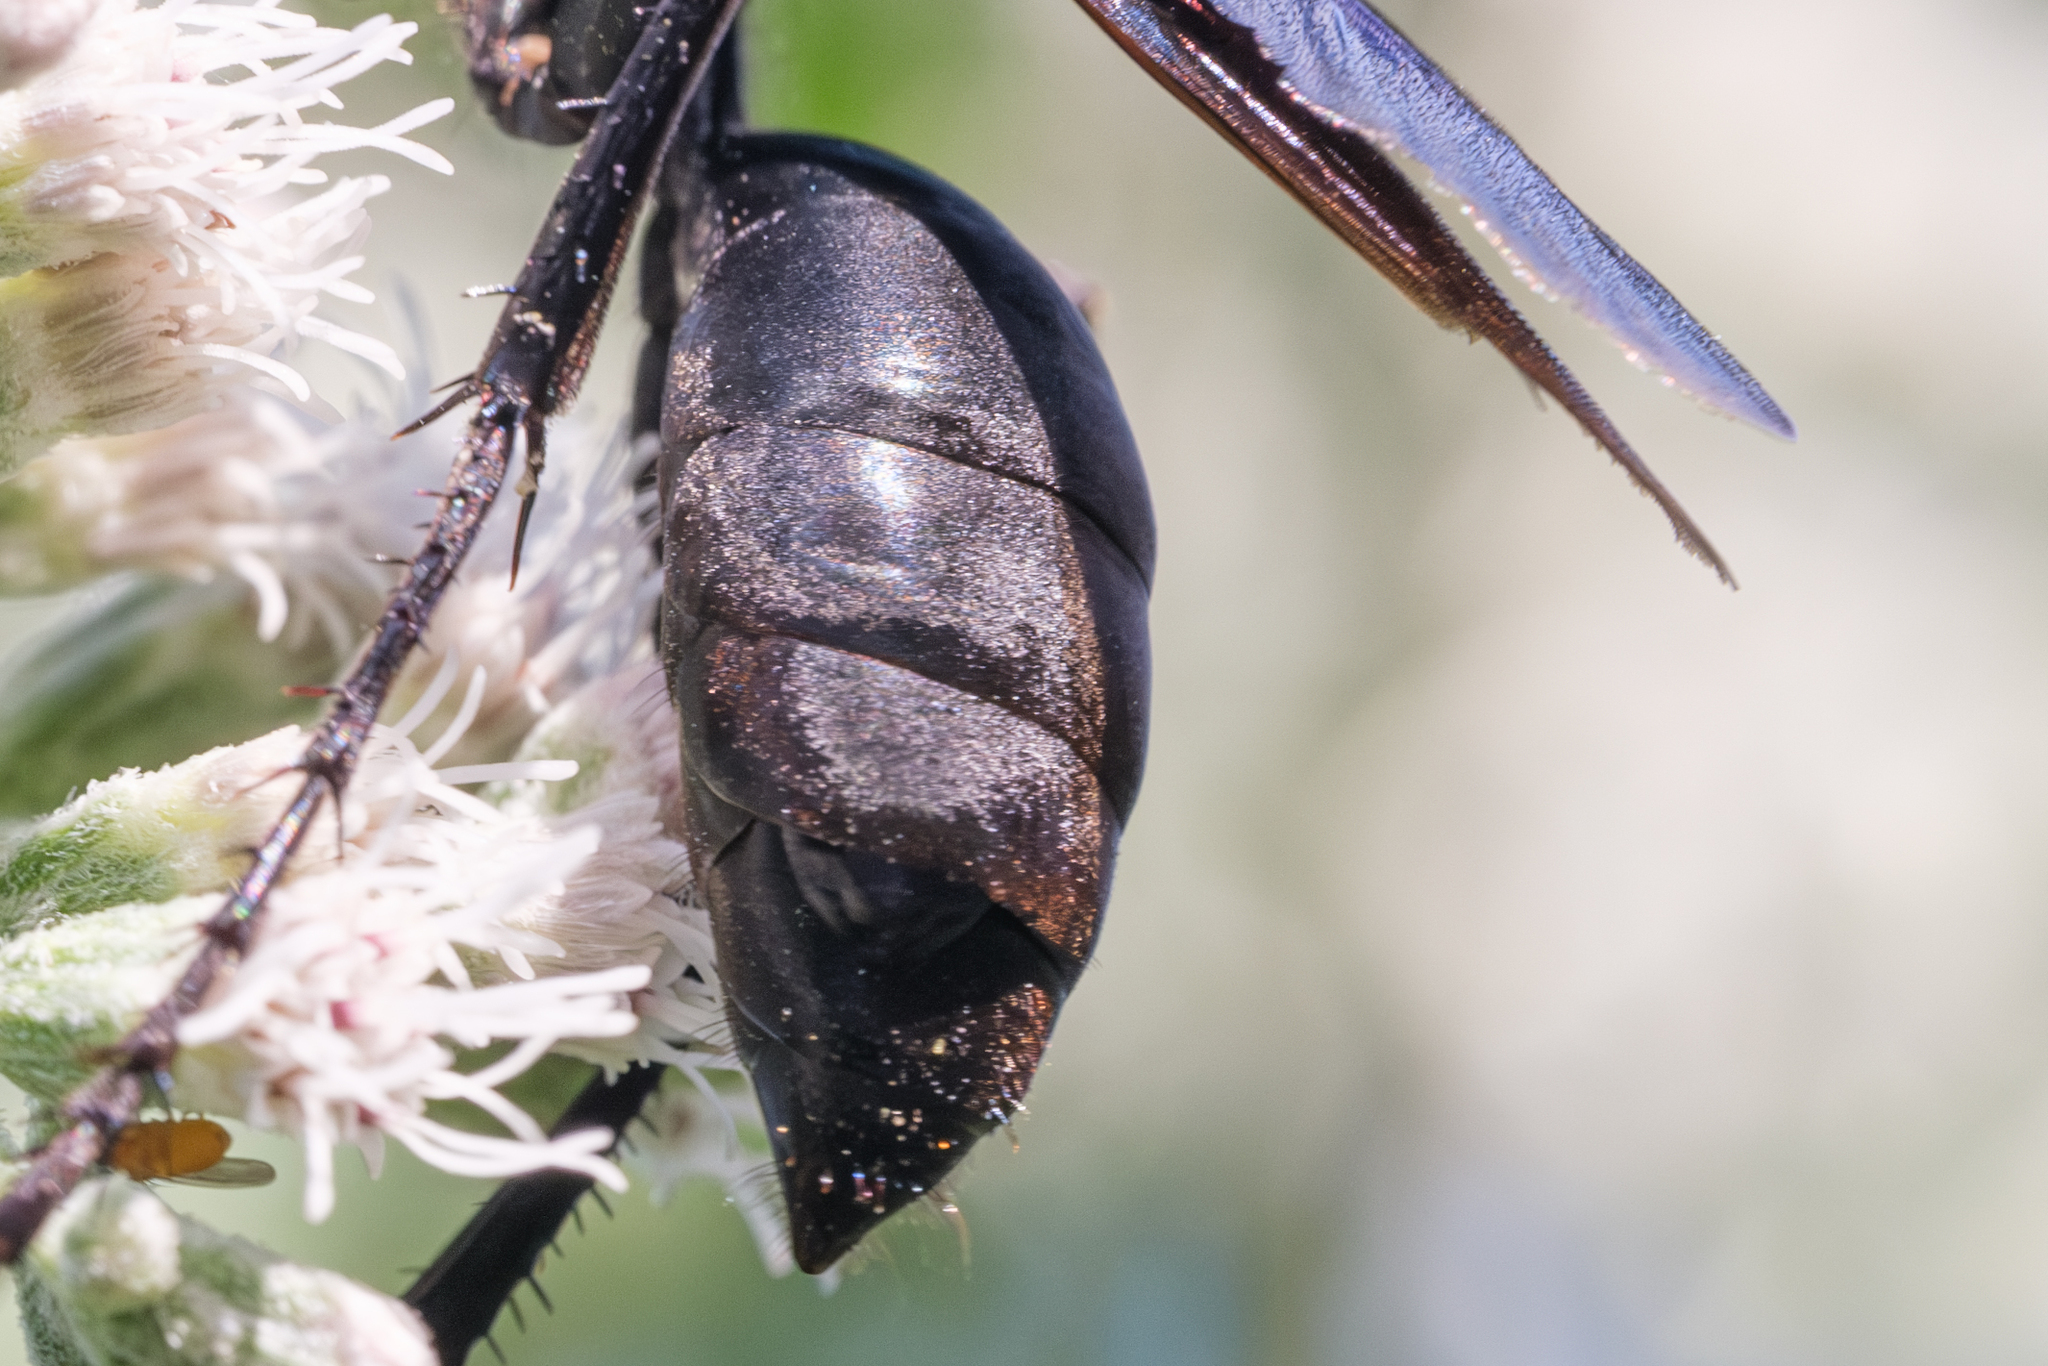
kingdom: Animalia
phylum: Arthropoda
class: Insecta
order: Strepsiptera
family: Xenidae
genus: Paraxenos
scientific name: Paraxenos Eupathocera westwoodii
